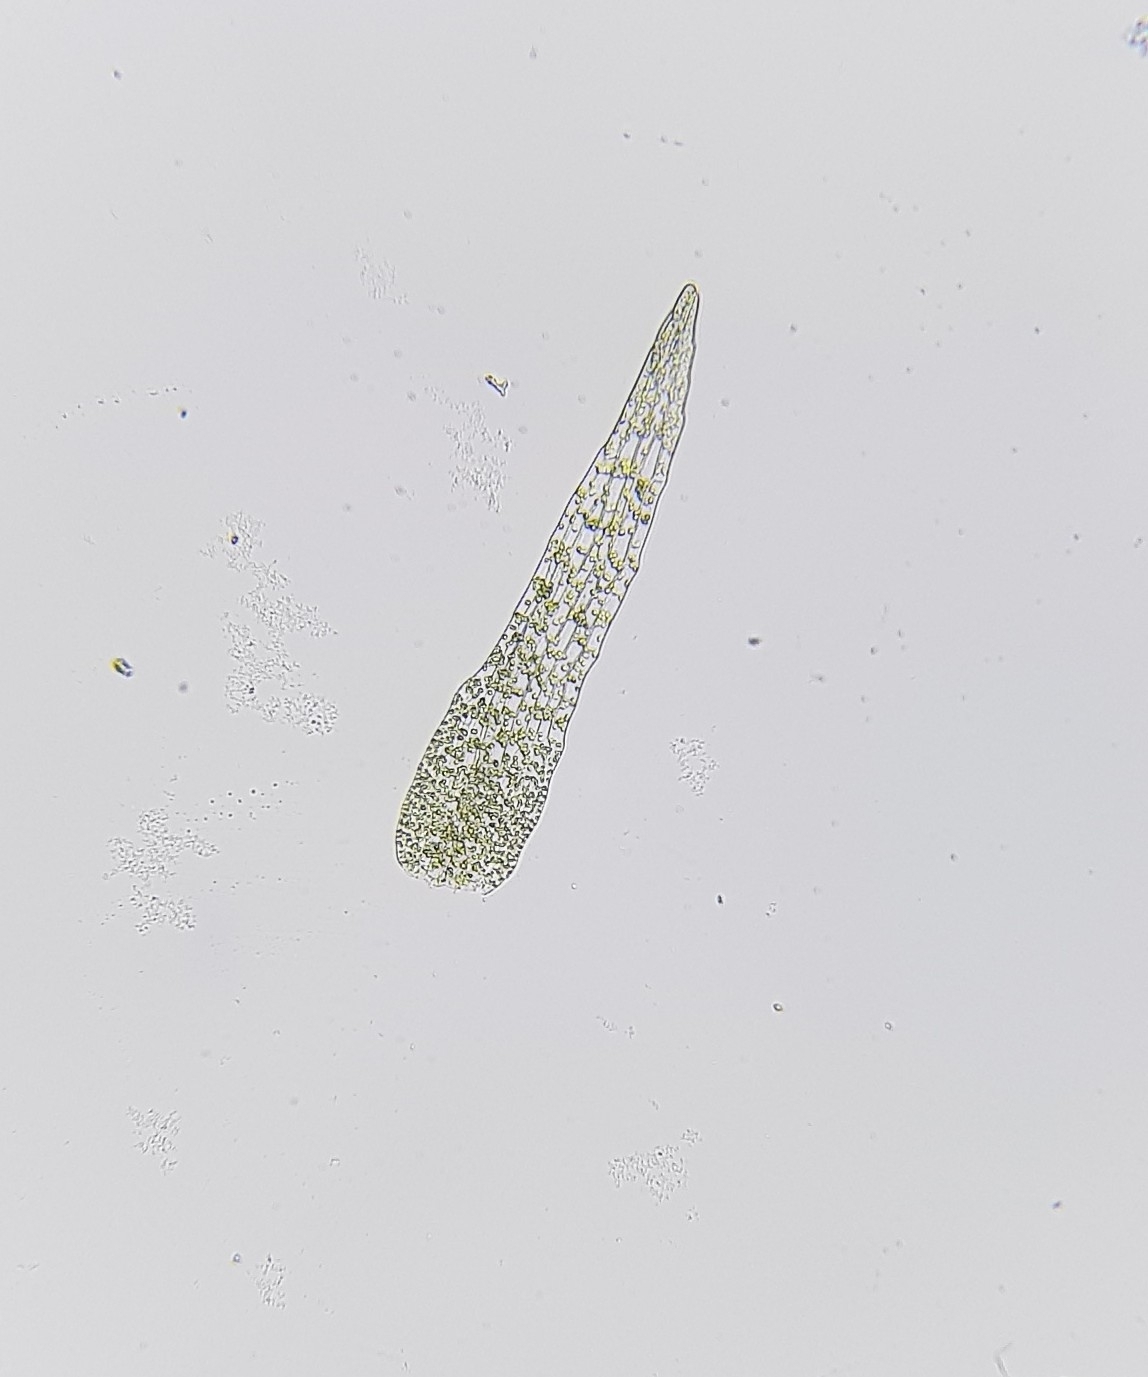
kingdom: Plantae
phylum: Bryophyta
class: Bryopsida
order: Dicranales
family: Dicranellaceae
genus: Dicranella
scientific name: Dicranella rufescens
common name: Red forklet moss
